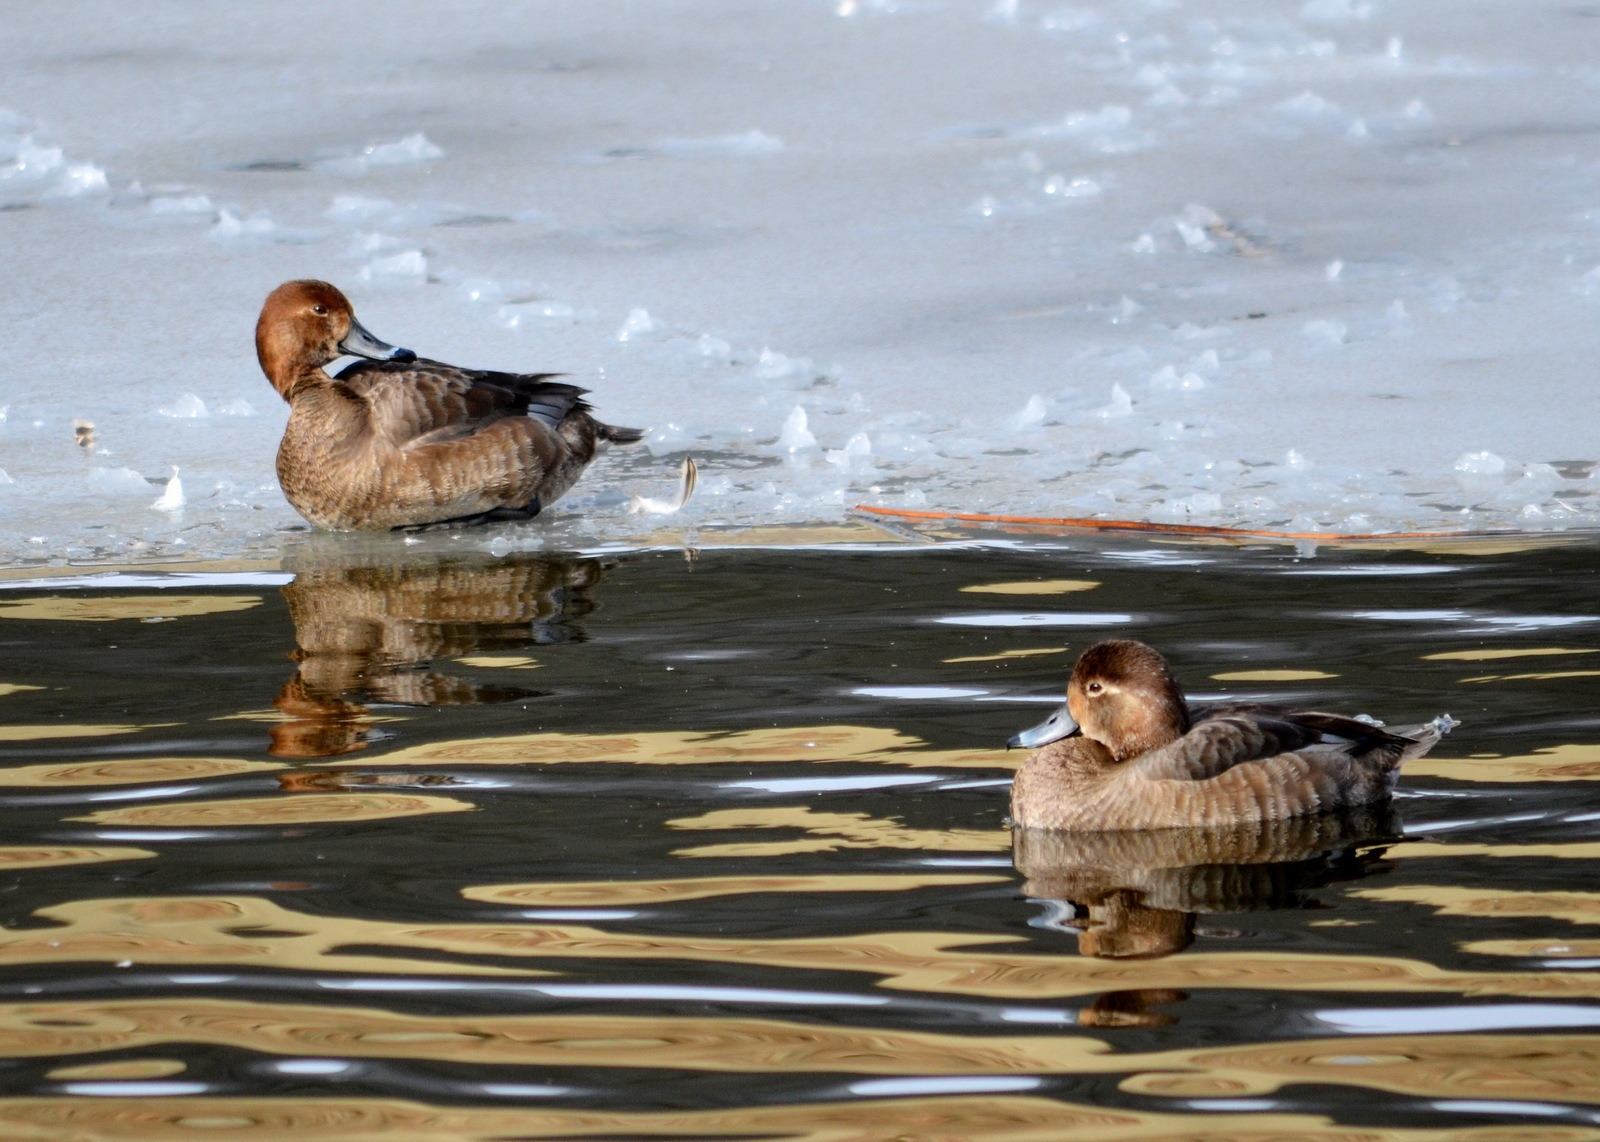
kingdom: Animalia
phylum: Chordata
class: Aves
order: Anseriformes
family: Anatidae
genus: Aythya
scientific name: Aythya americana
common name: Redhead
